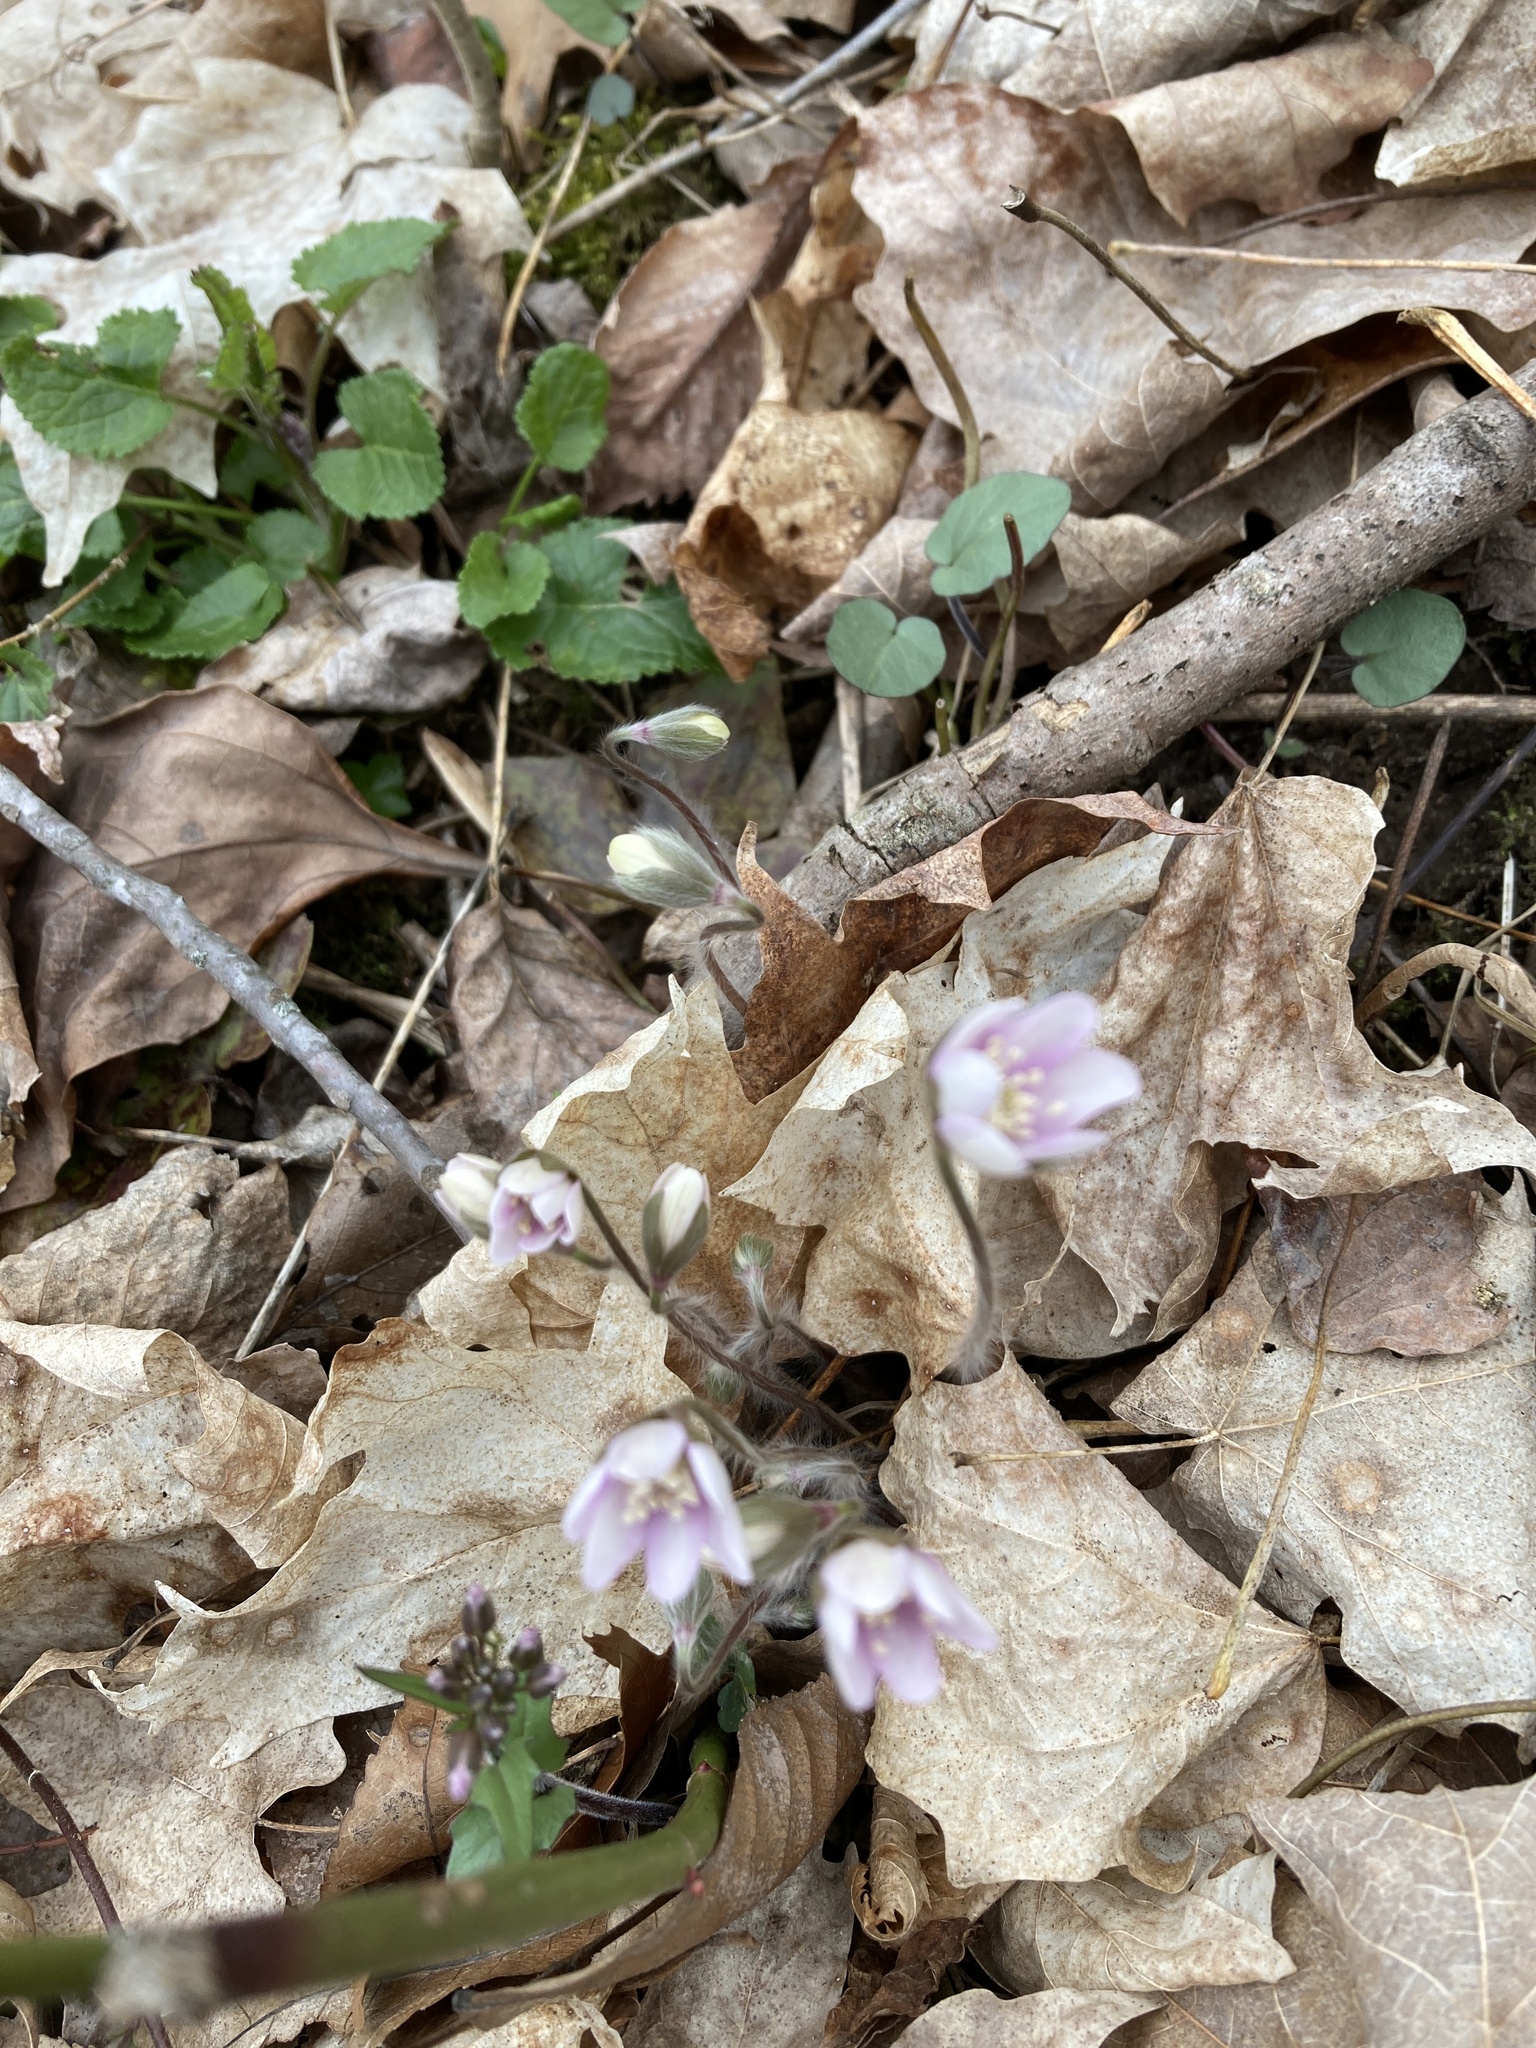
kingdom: Plantae
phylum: Tracheophyta
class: Magnoliopsida
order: Ranunculales
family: Ranunculaceae
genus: Hepatica
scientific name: Hepatica acutiloba
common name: Sharp-lobed hepatica
